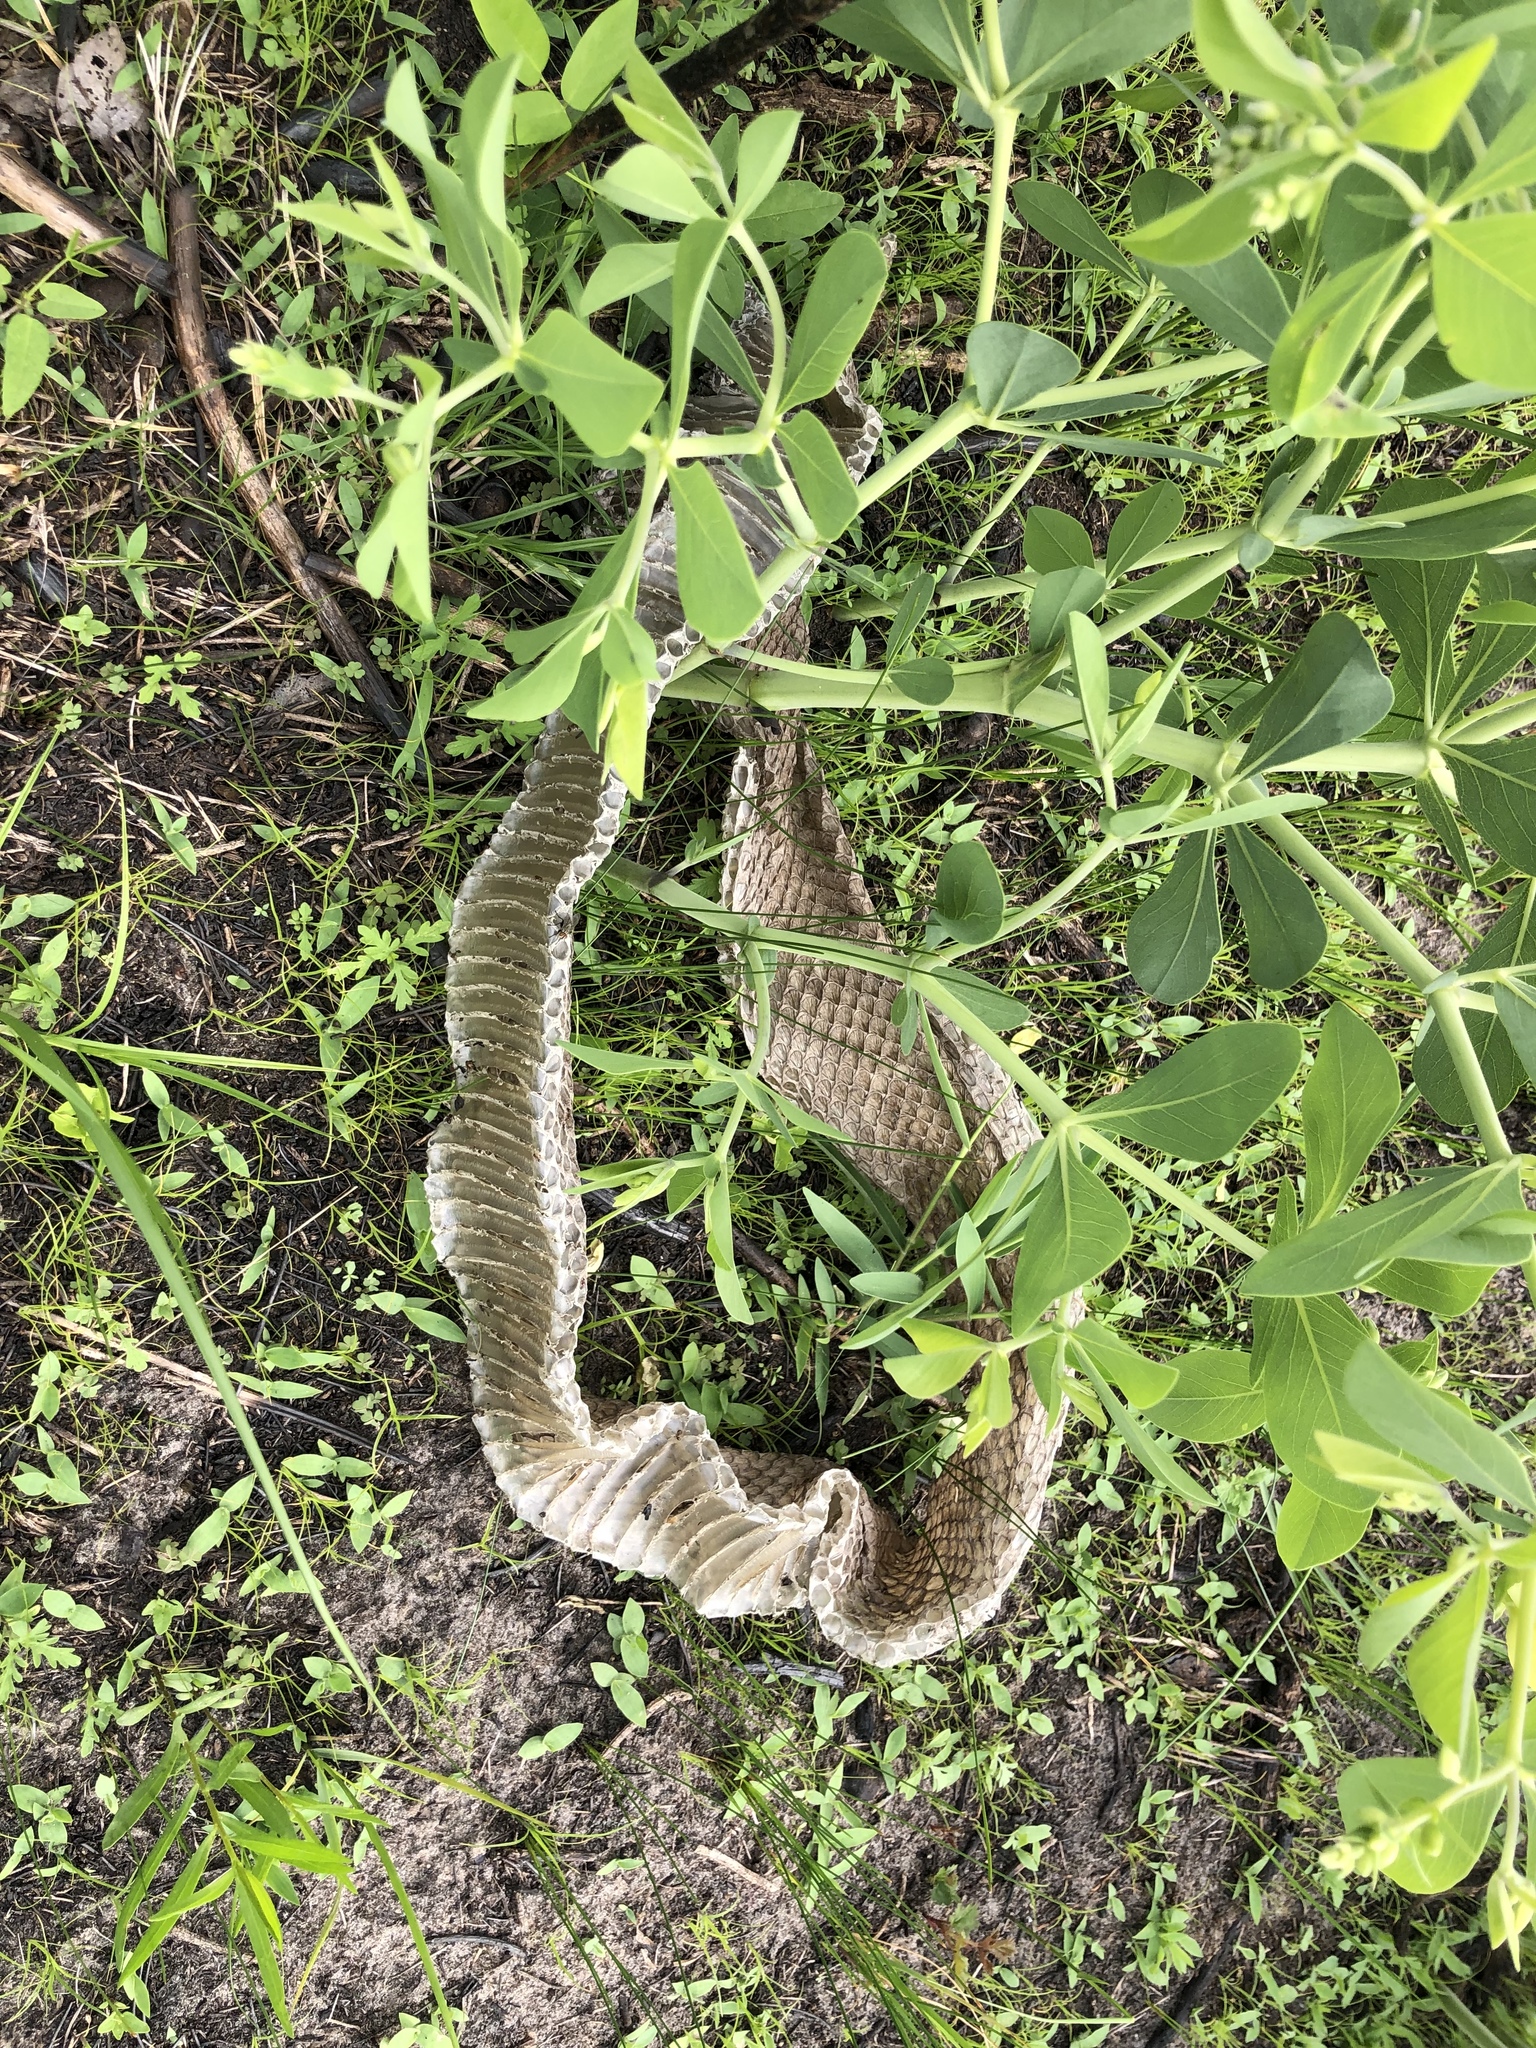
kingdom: Animalia
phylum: Chordata
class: Squamata
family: Viperidae
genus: Crotalus
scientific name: Crotalus atrox
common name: Western diamond-backed rattlesnake
